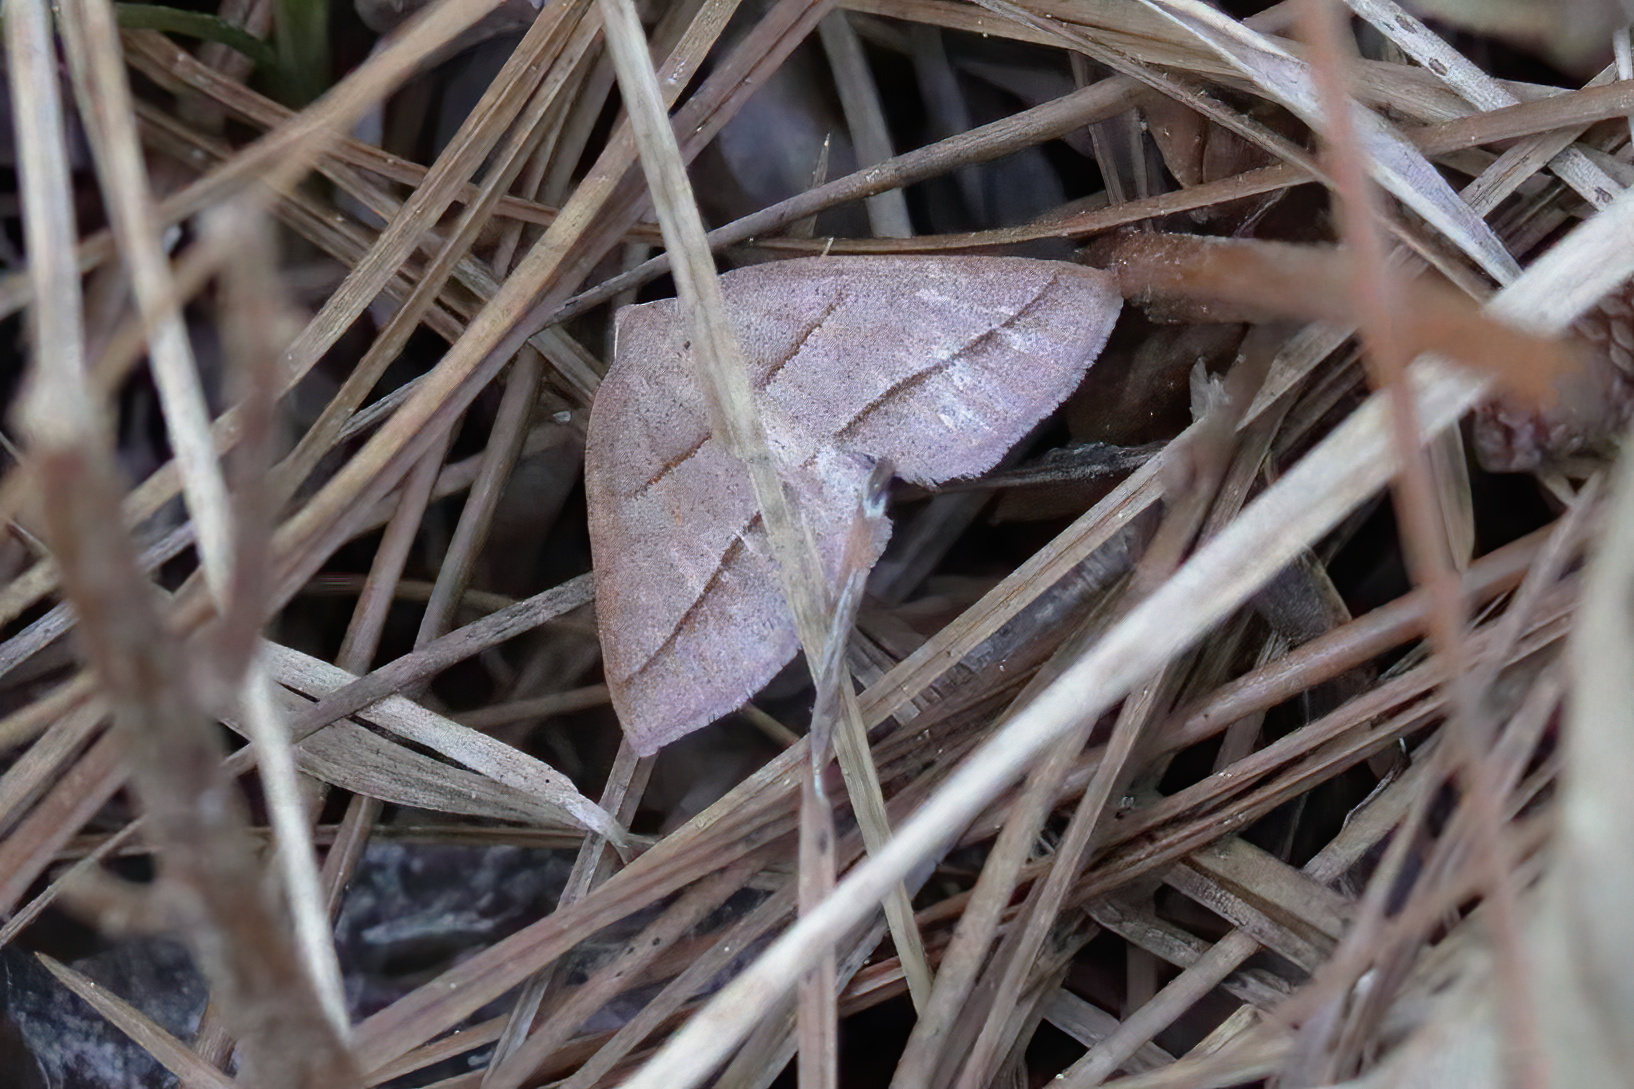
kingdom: Animalia
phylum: Arthropoda
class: Insecta
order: Lepidoptera
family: Pterophoridae
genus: Pterophorus
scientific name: Pterophorus Petrophora divisata
